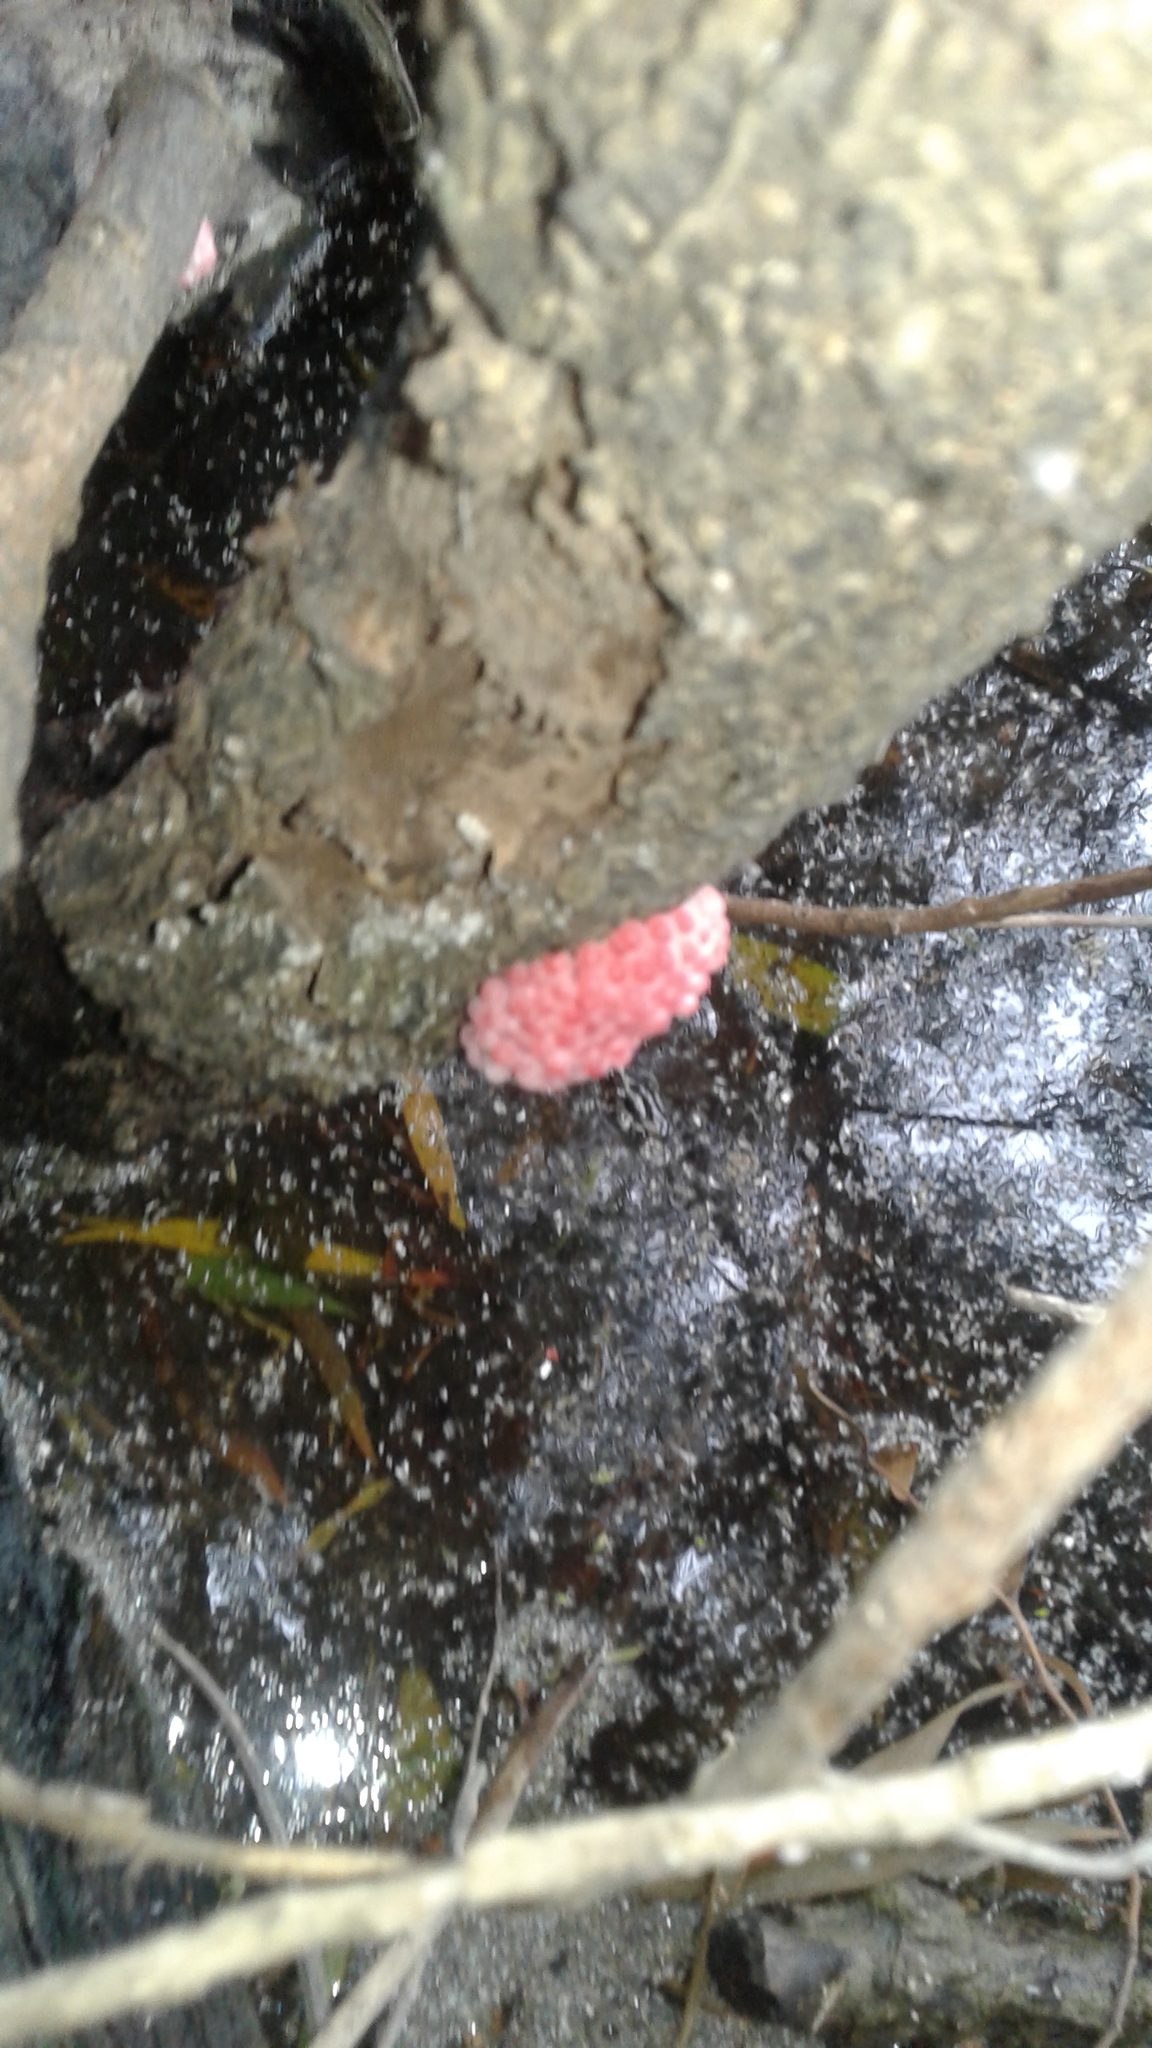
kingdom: Animalia
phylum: Mollusca
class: Gastropoda
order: Architaenioglossa
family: Ampullariidae
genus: Pomacea
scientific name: Pomacea canaliculata
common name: Channeled applesnail
